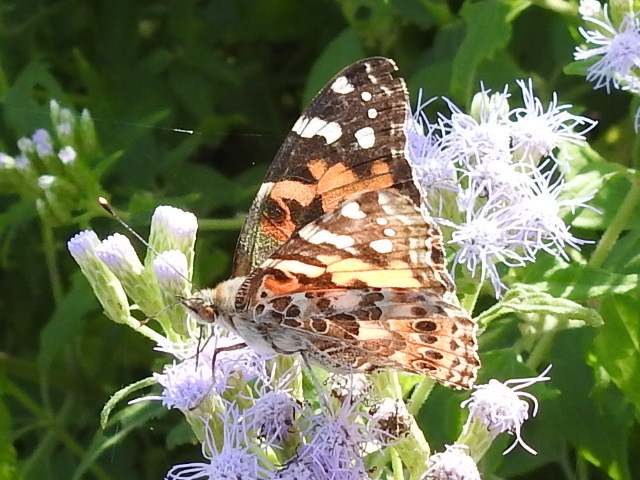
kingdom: Animalia
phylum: Arthropoda
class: Insecta
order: Lepidoptera
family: Nymphalidae
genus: Vanessa
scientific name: Vanessa cardui
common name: Painted lady
